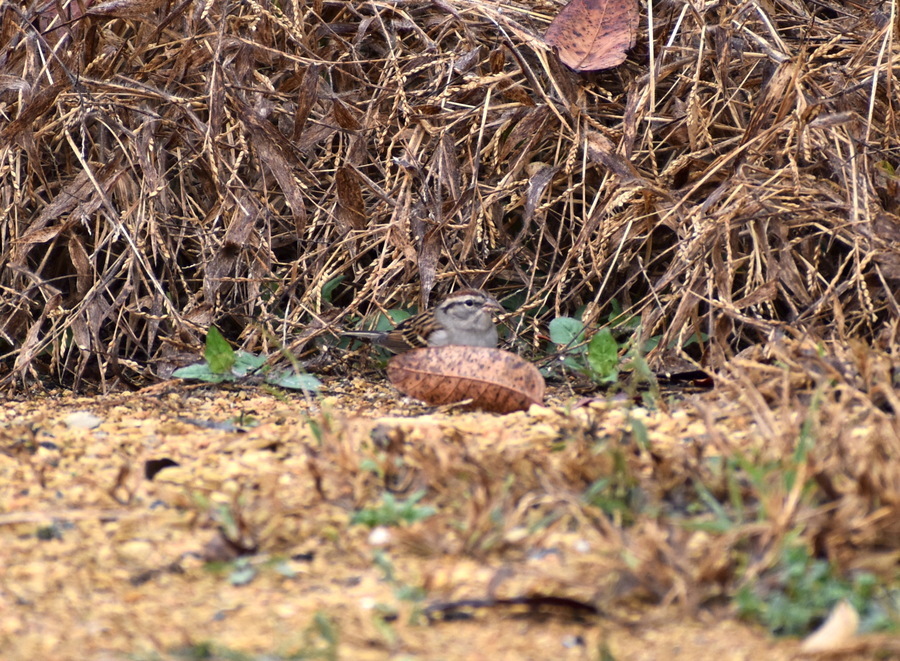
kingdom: Animalia
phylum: Chordata
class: Aves
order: Passeriformes
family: Passerellidae
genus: Spizella
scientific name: Spizella passerina
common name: Chipping sparrow
